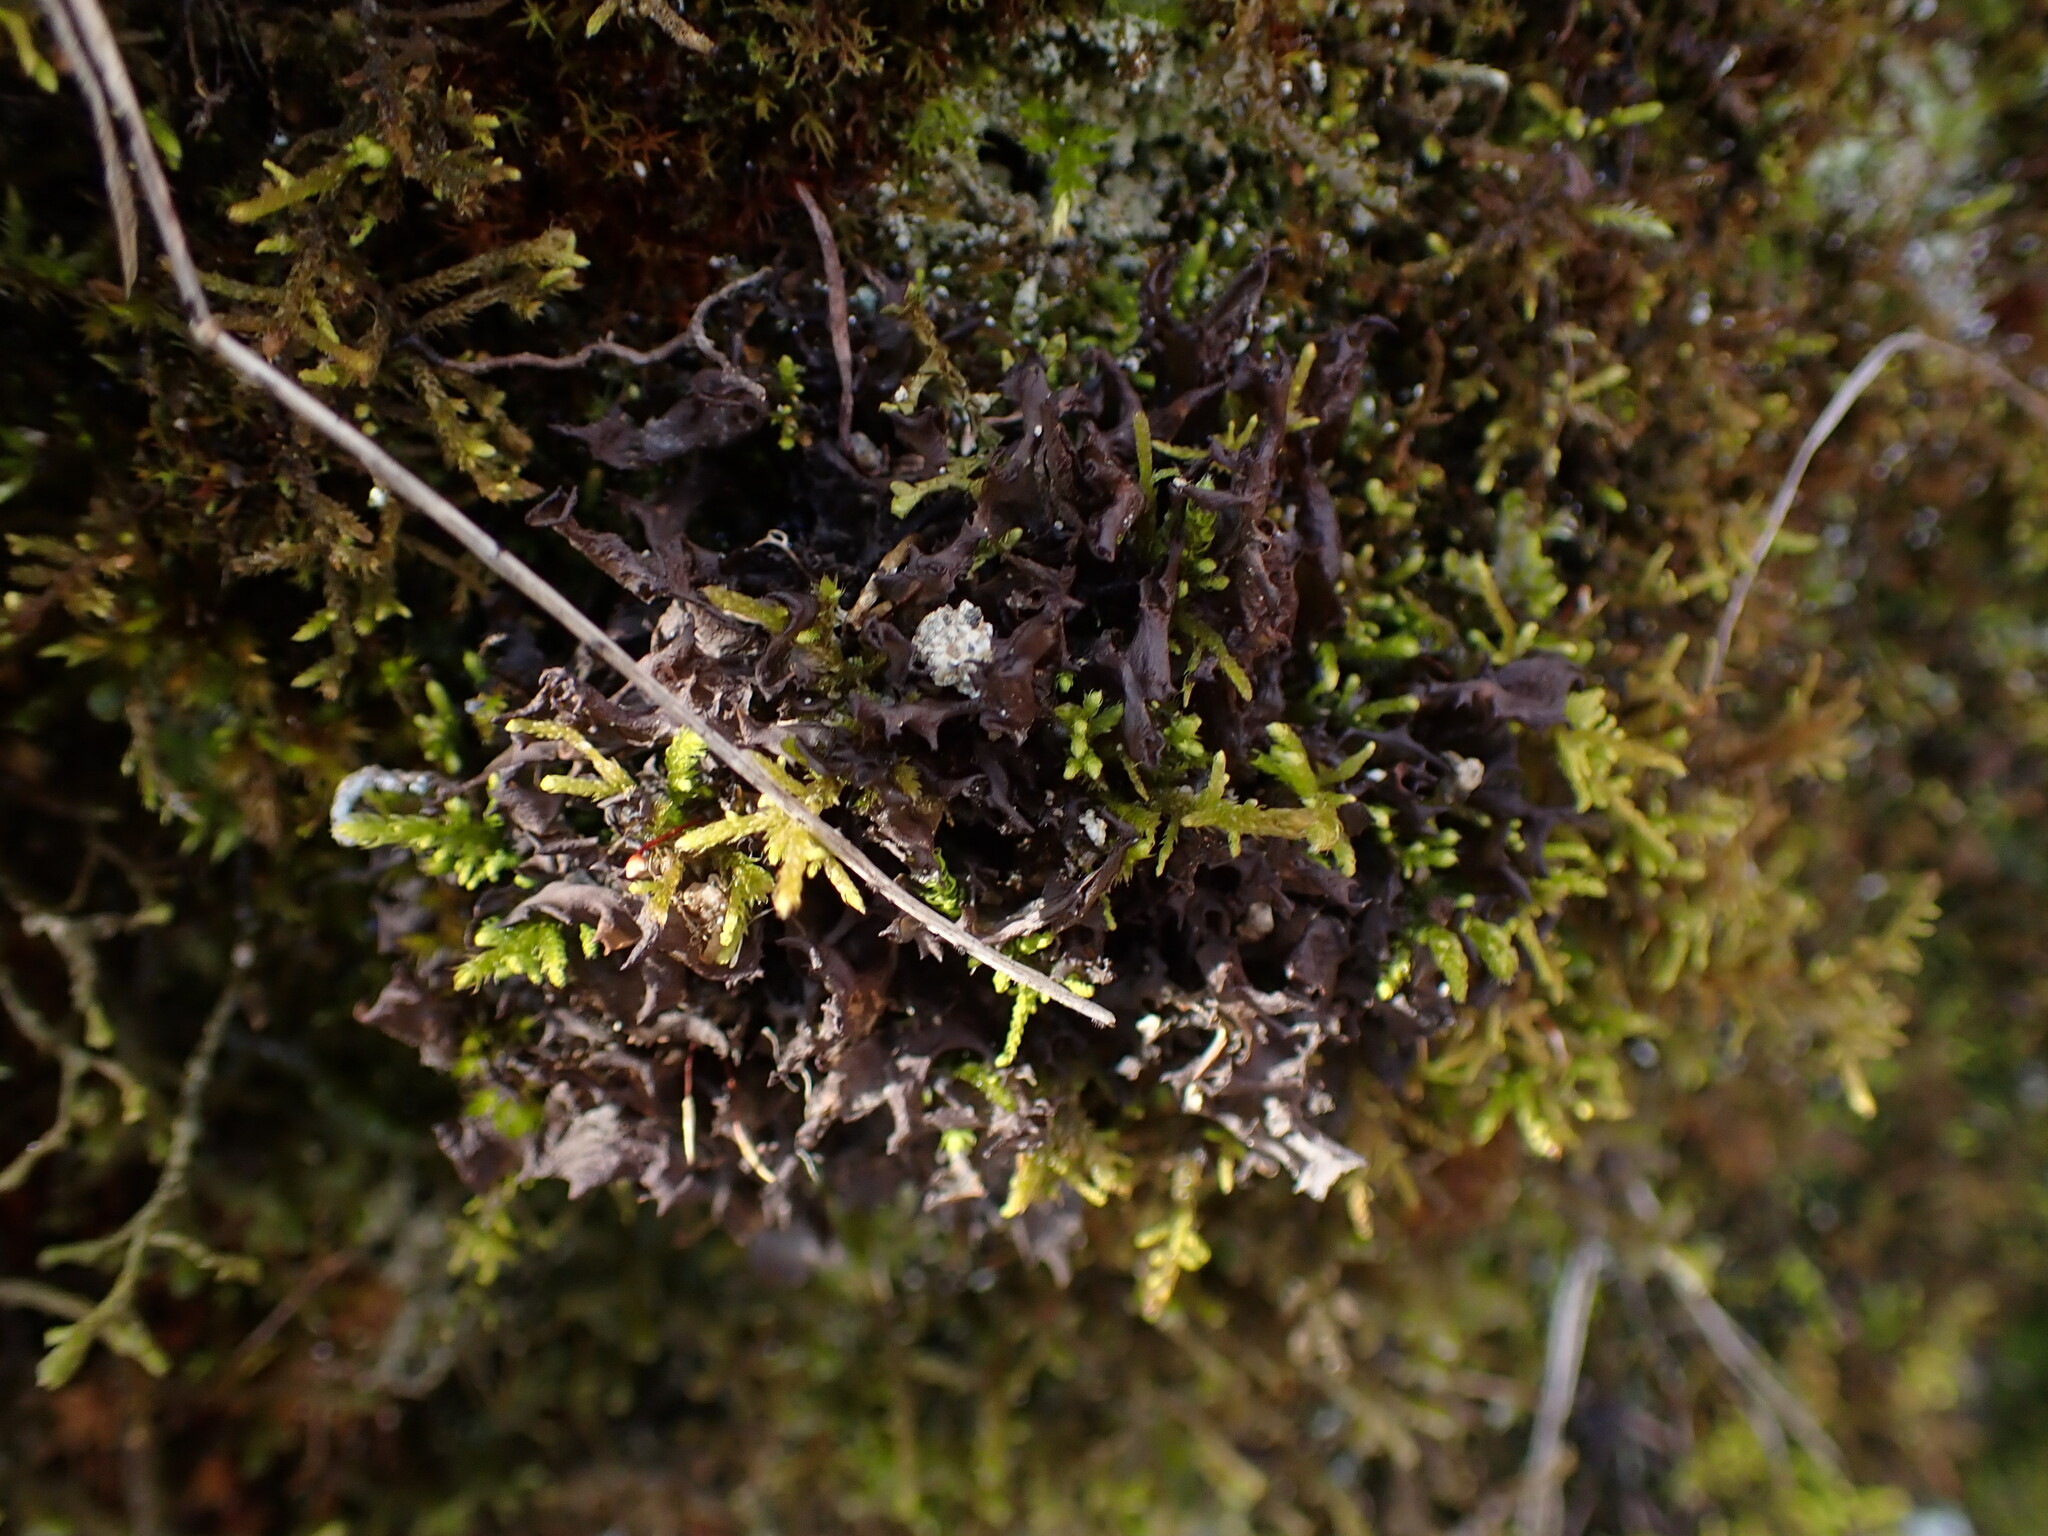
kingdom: Fungi
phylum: Ascomycota
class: Lecanoromycetes
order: Peltigerales
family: Collemataceae
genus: Scytinium
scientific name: Scytinium palmatum
